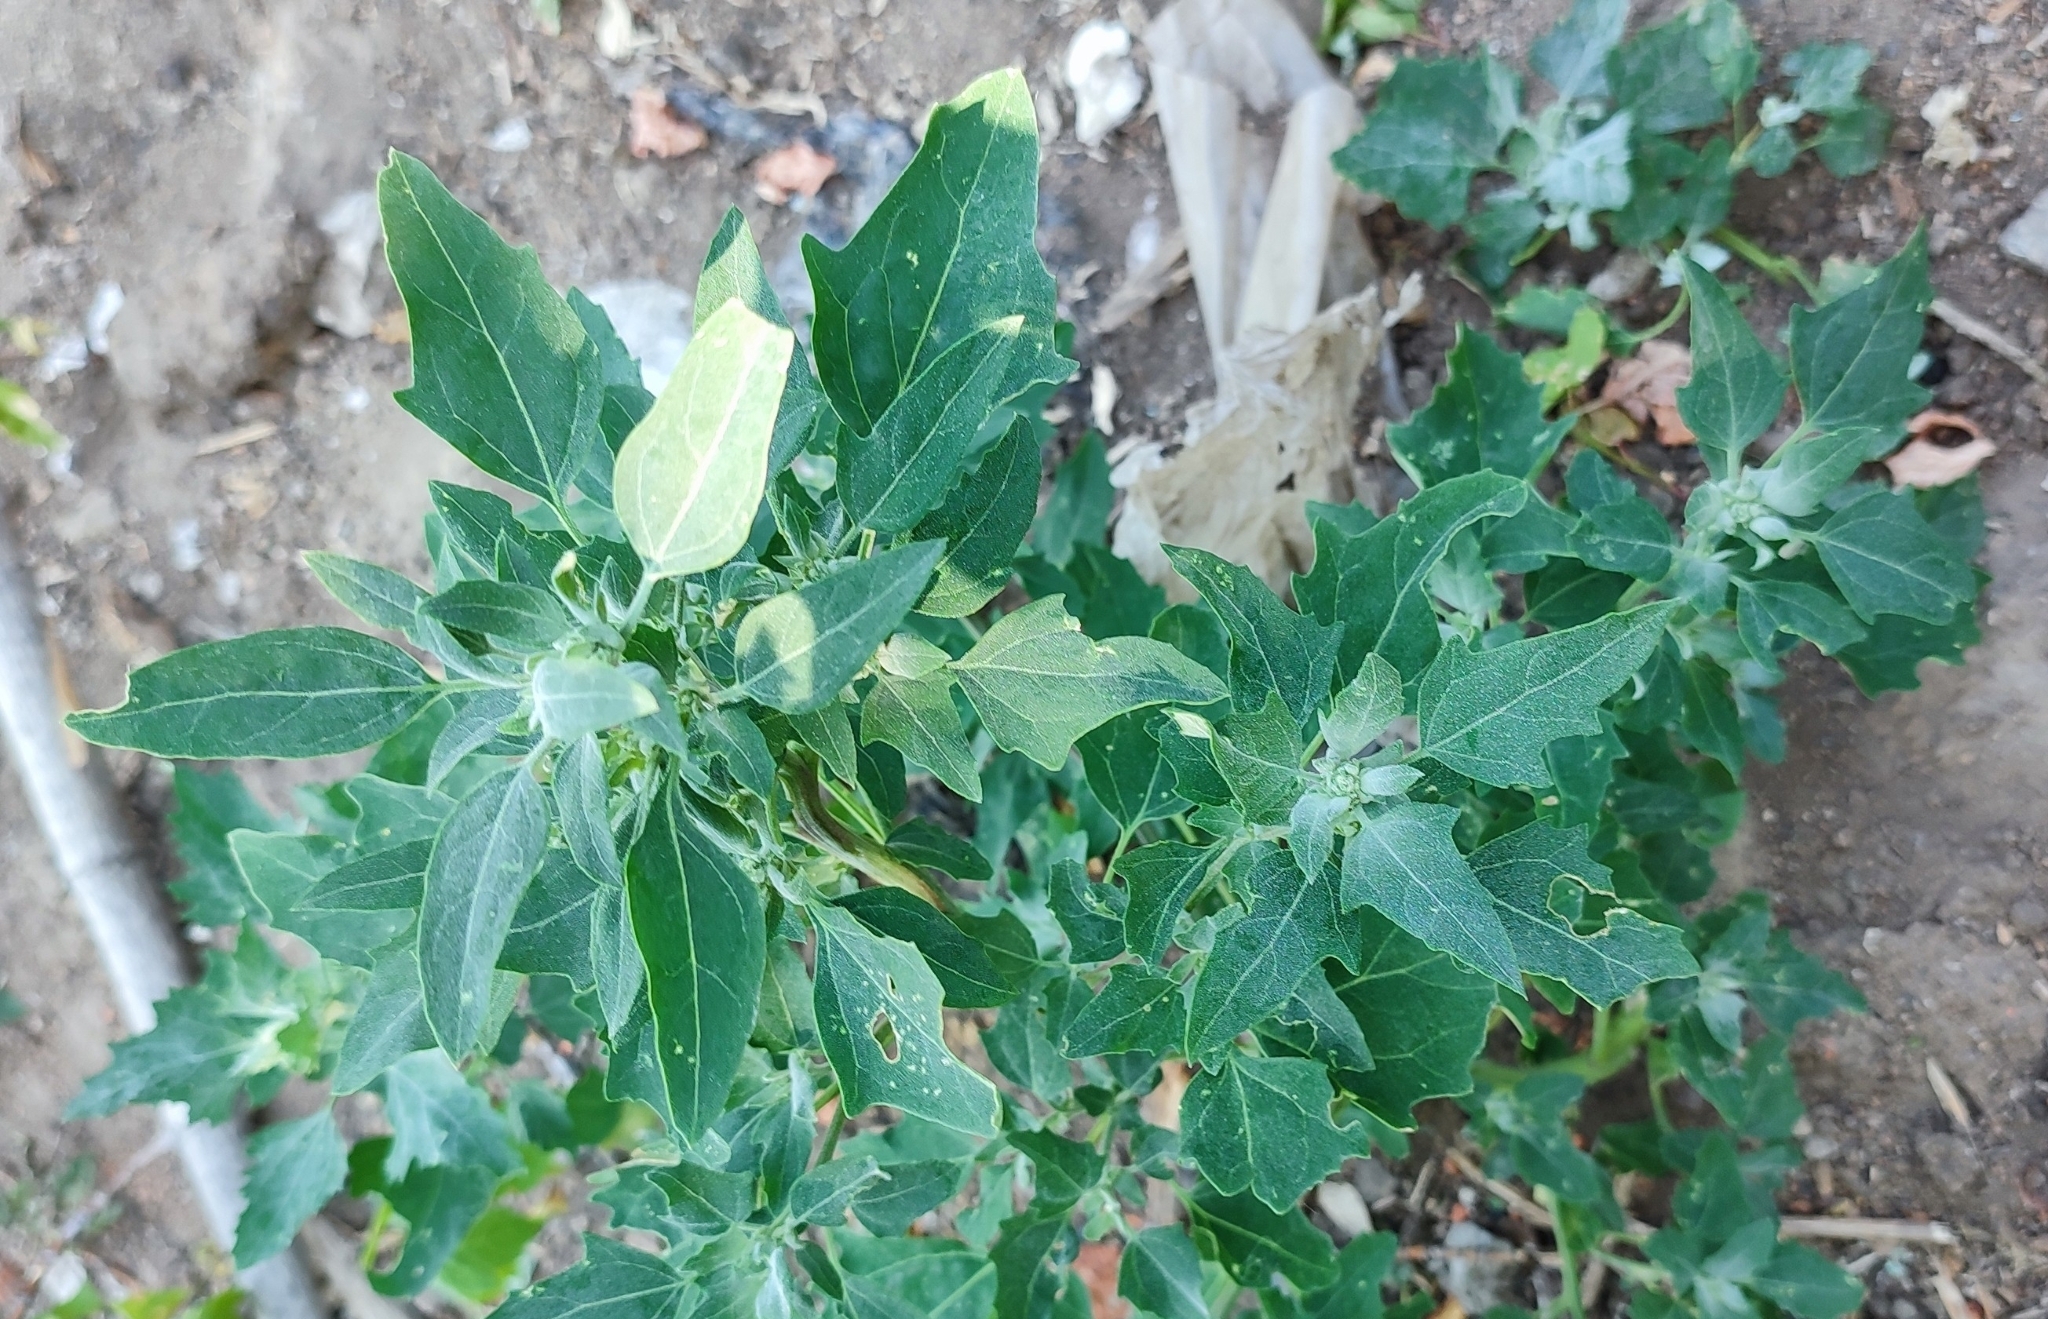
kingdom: Plantae
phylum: Tracheophyta
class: Magnoliopsida
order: Caryophyllales
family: Amaranthaceae
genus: Chenopodium
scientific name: Chenopodium album
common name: Fat-hen
